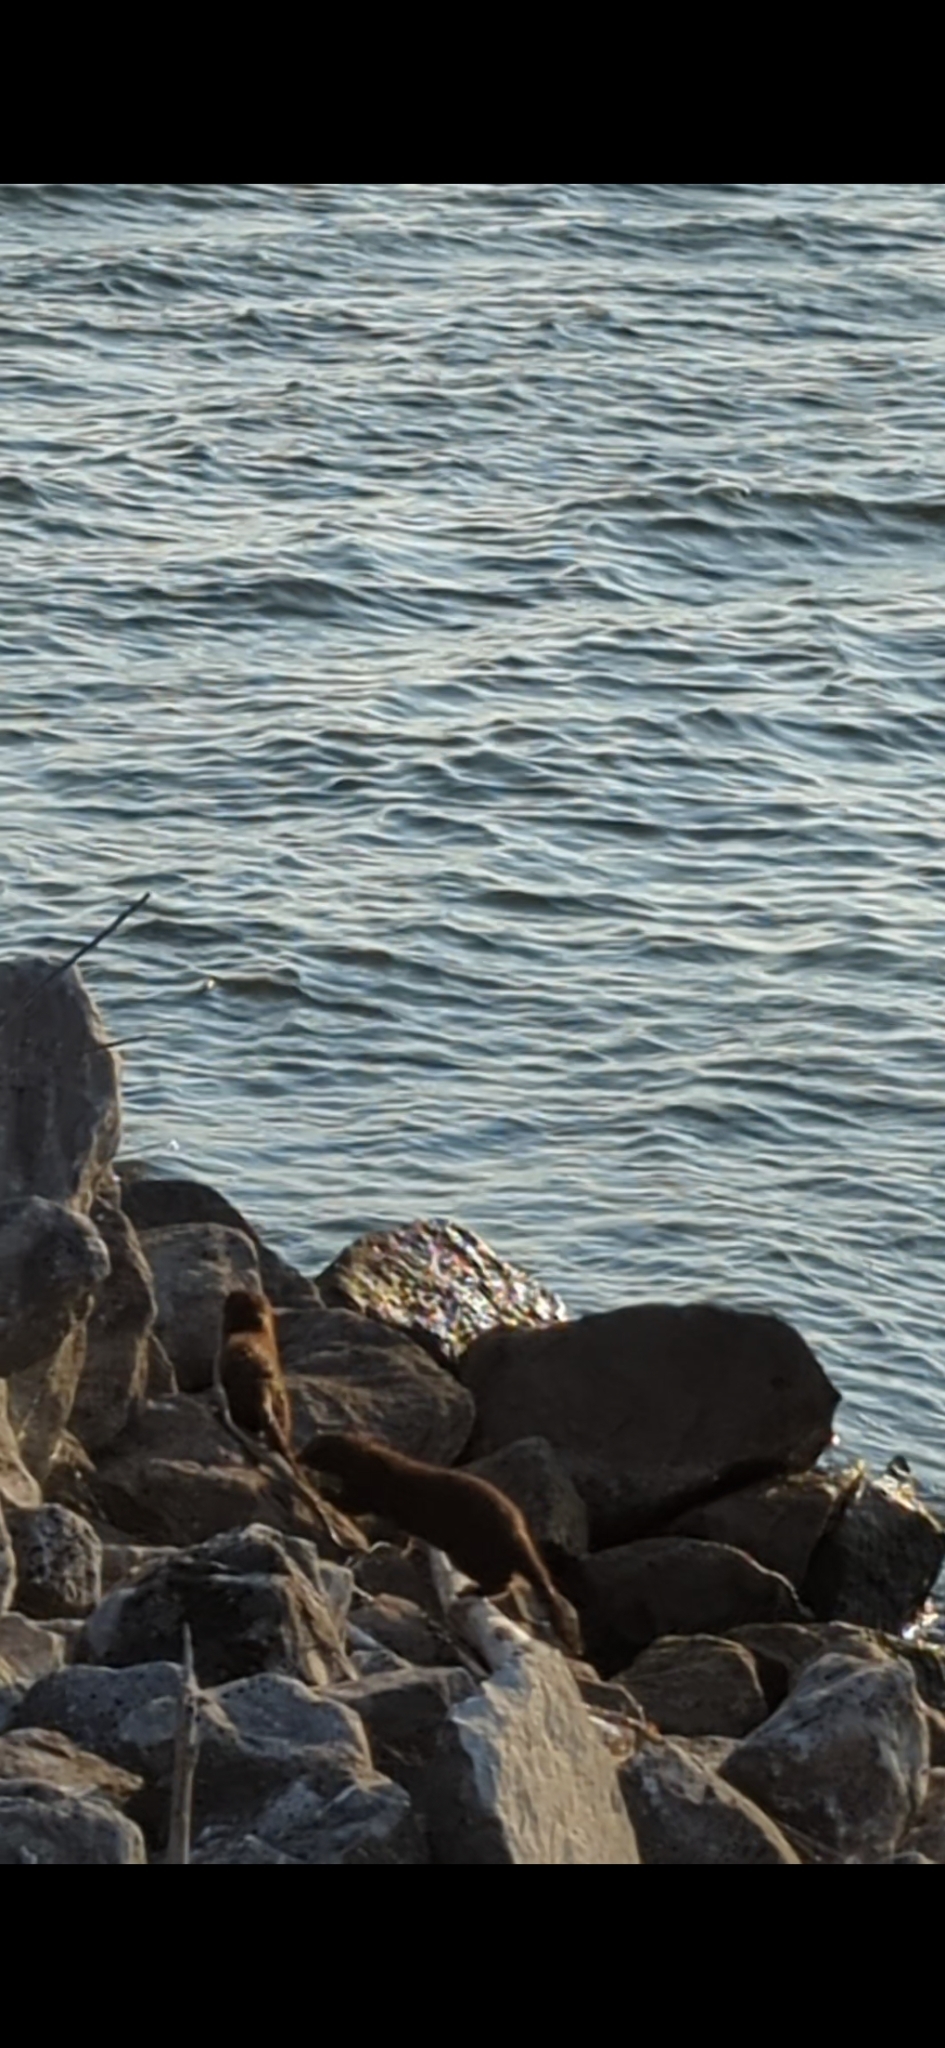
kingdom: Animalia
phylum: Chordata
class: Mammalia
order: Carnivora
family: Mustelidae
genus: Mustela
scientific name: Mustela
